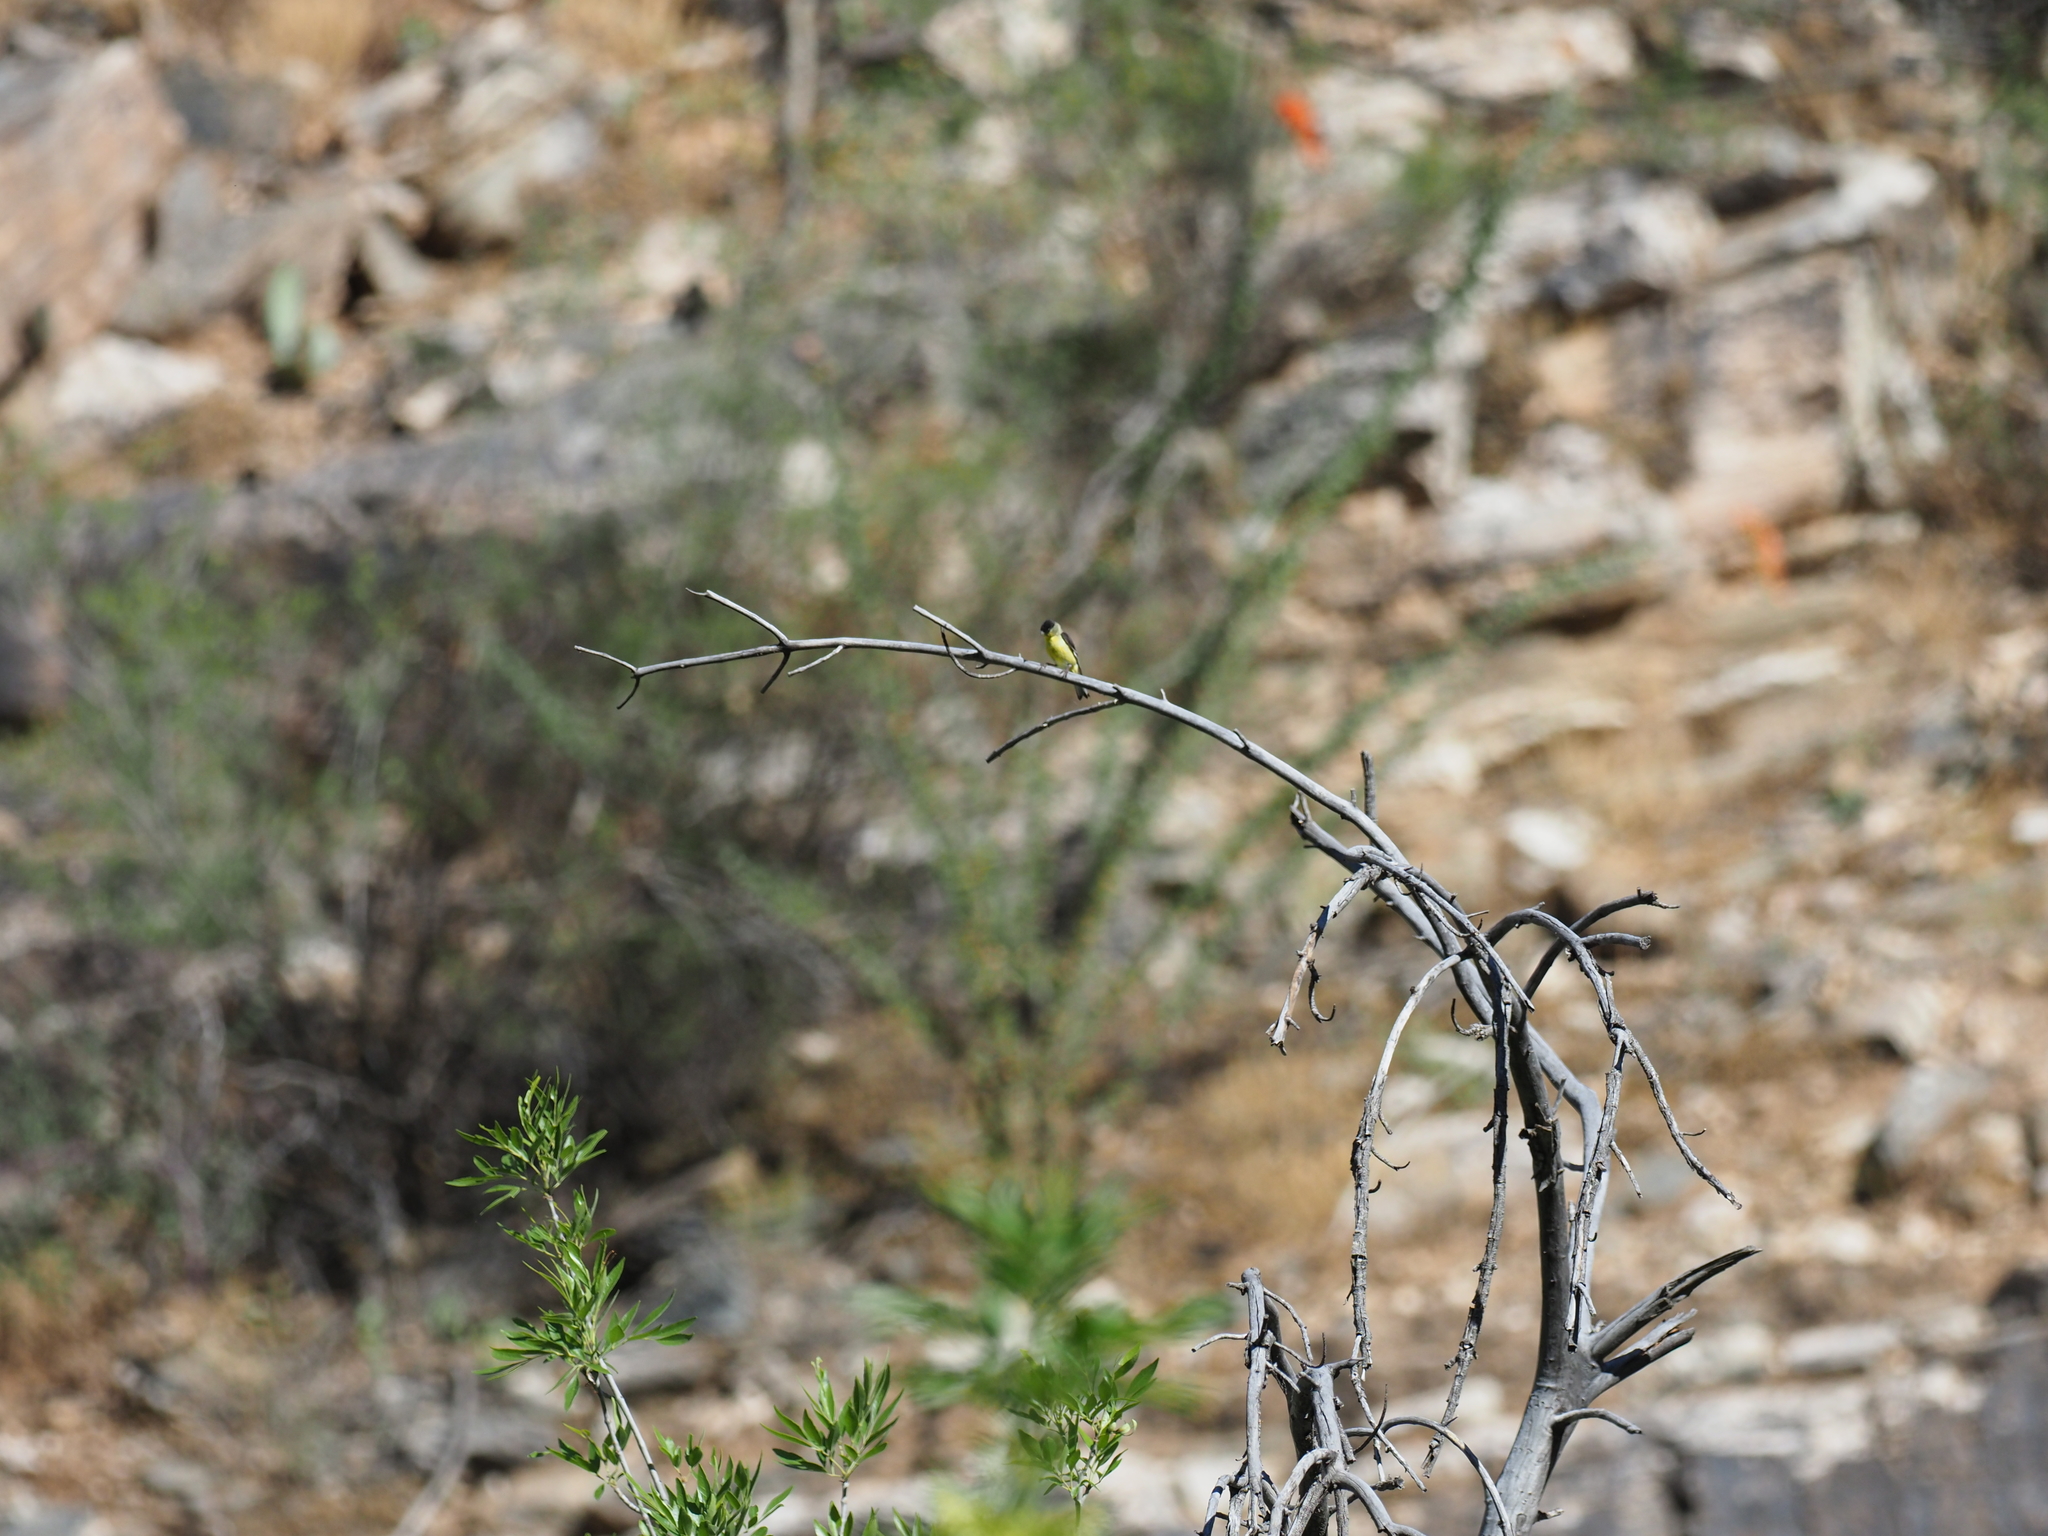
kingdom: Animalia
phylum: Chordata
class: Aves
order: Passeriformes
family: Fringillidae
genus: Spinus
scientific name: Spinus psaltria
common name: Lesser goldfinch
